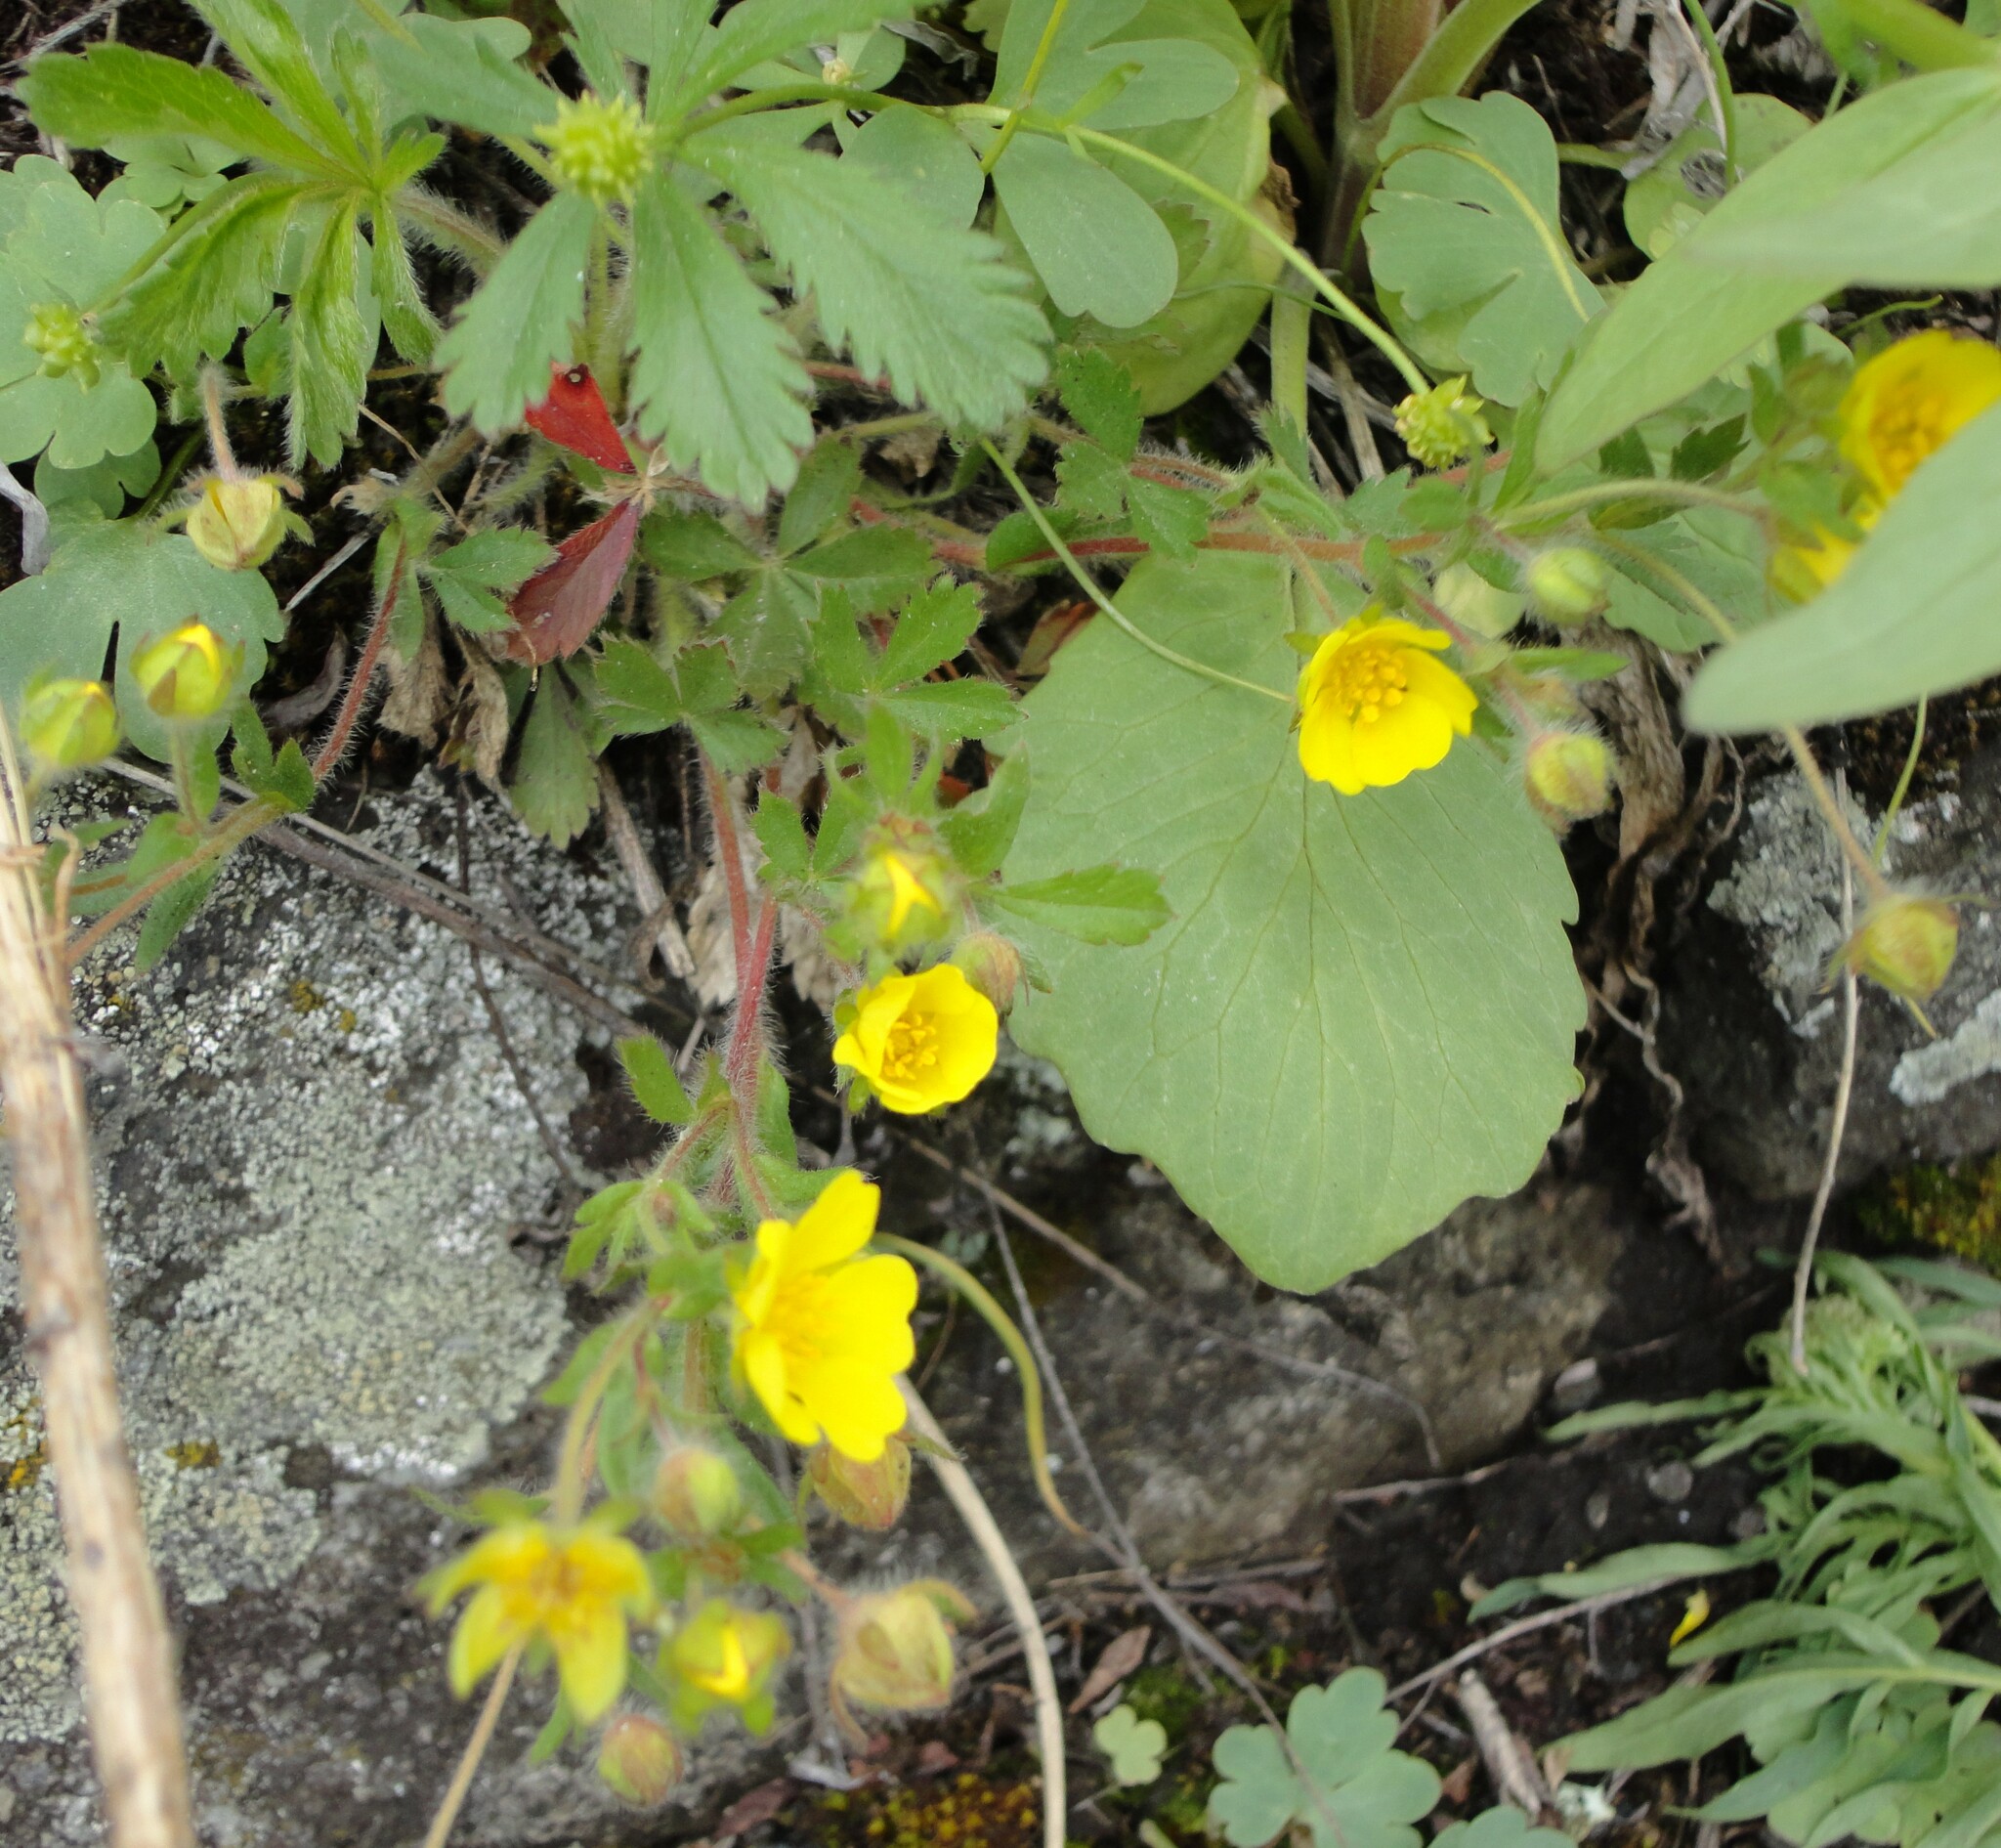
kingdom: Plantae
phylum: Tracheophyta
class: Magnoliopsida
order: Rosales
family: Rosaceae
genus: Potentilla
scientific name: Potentilla humifusa
